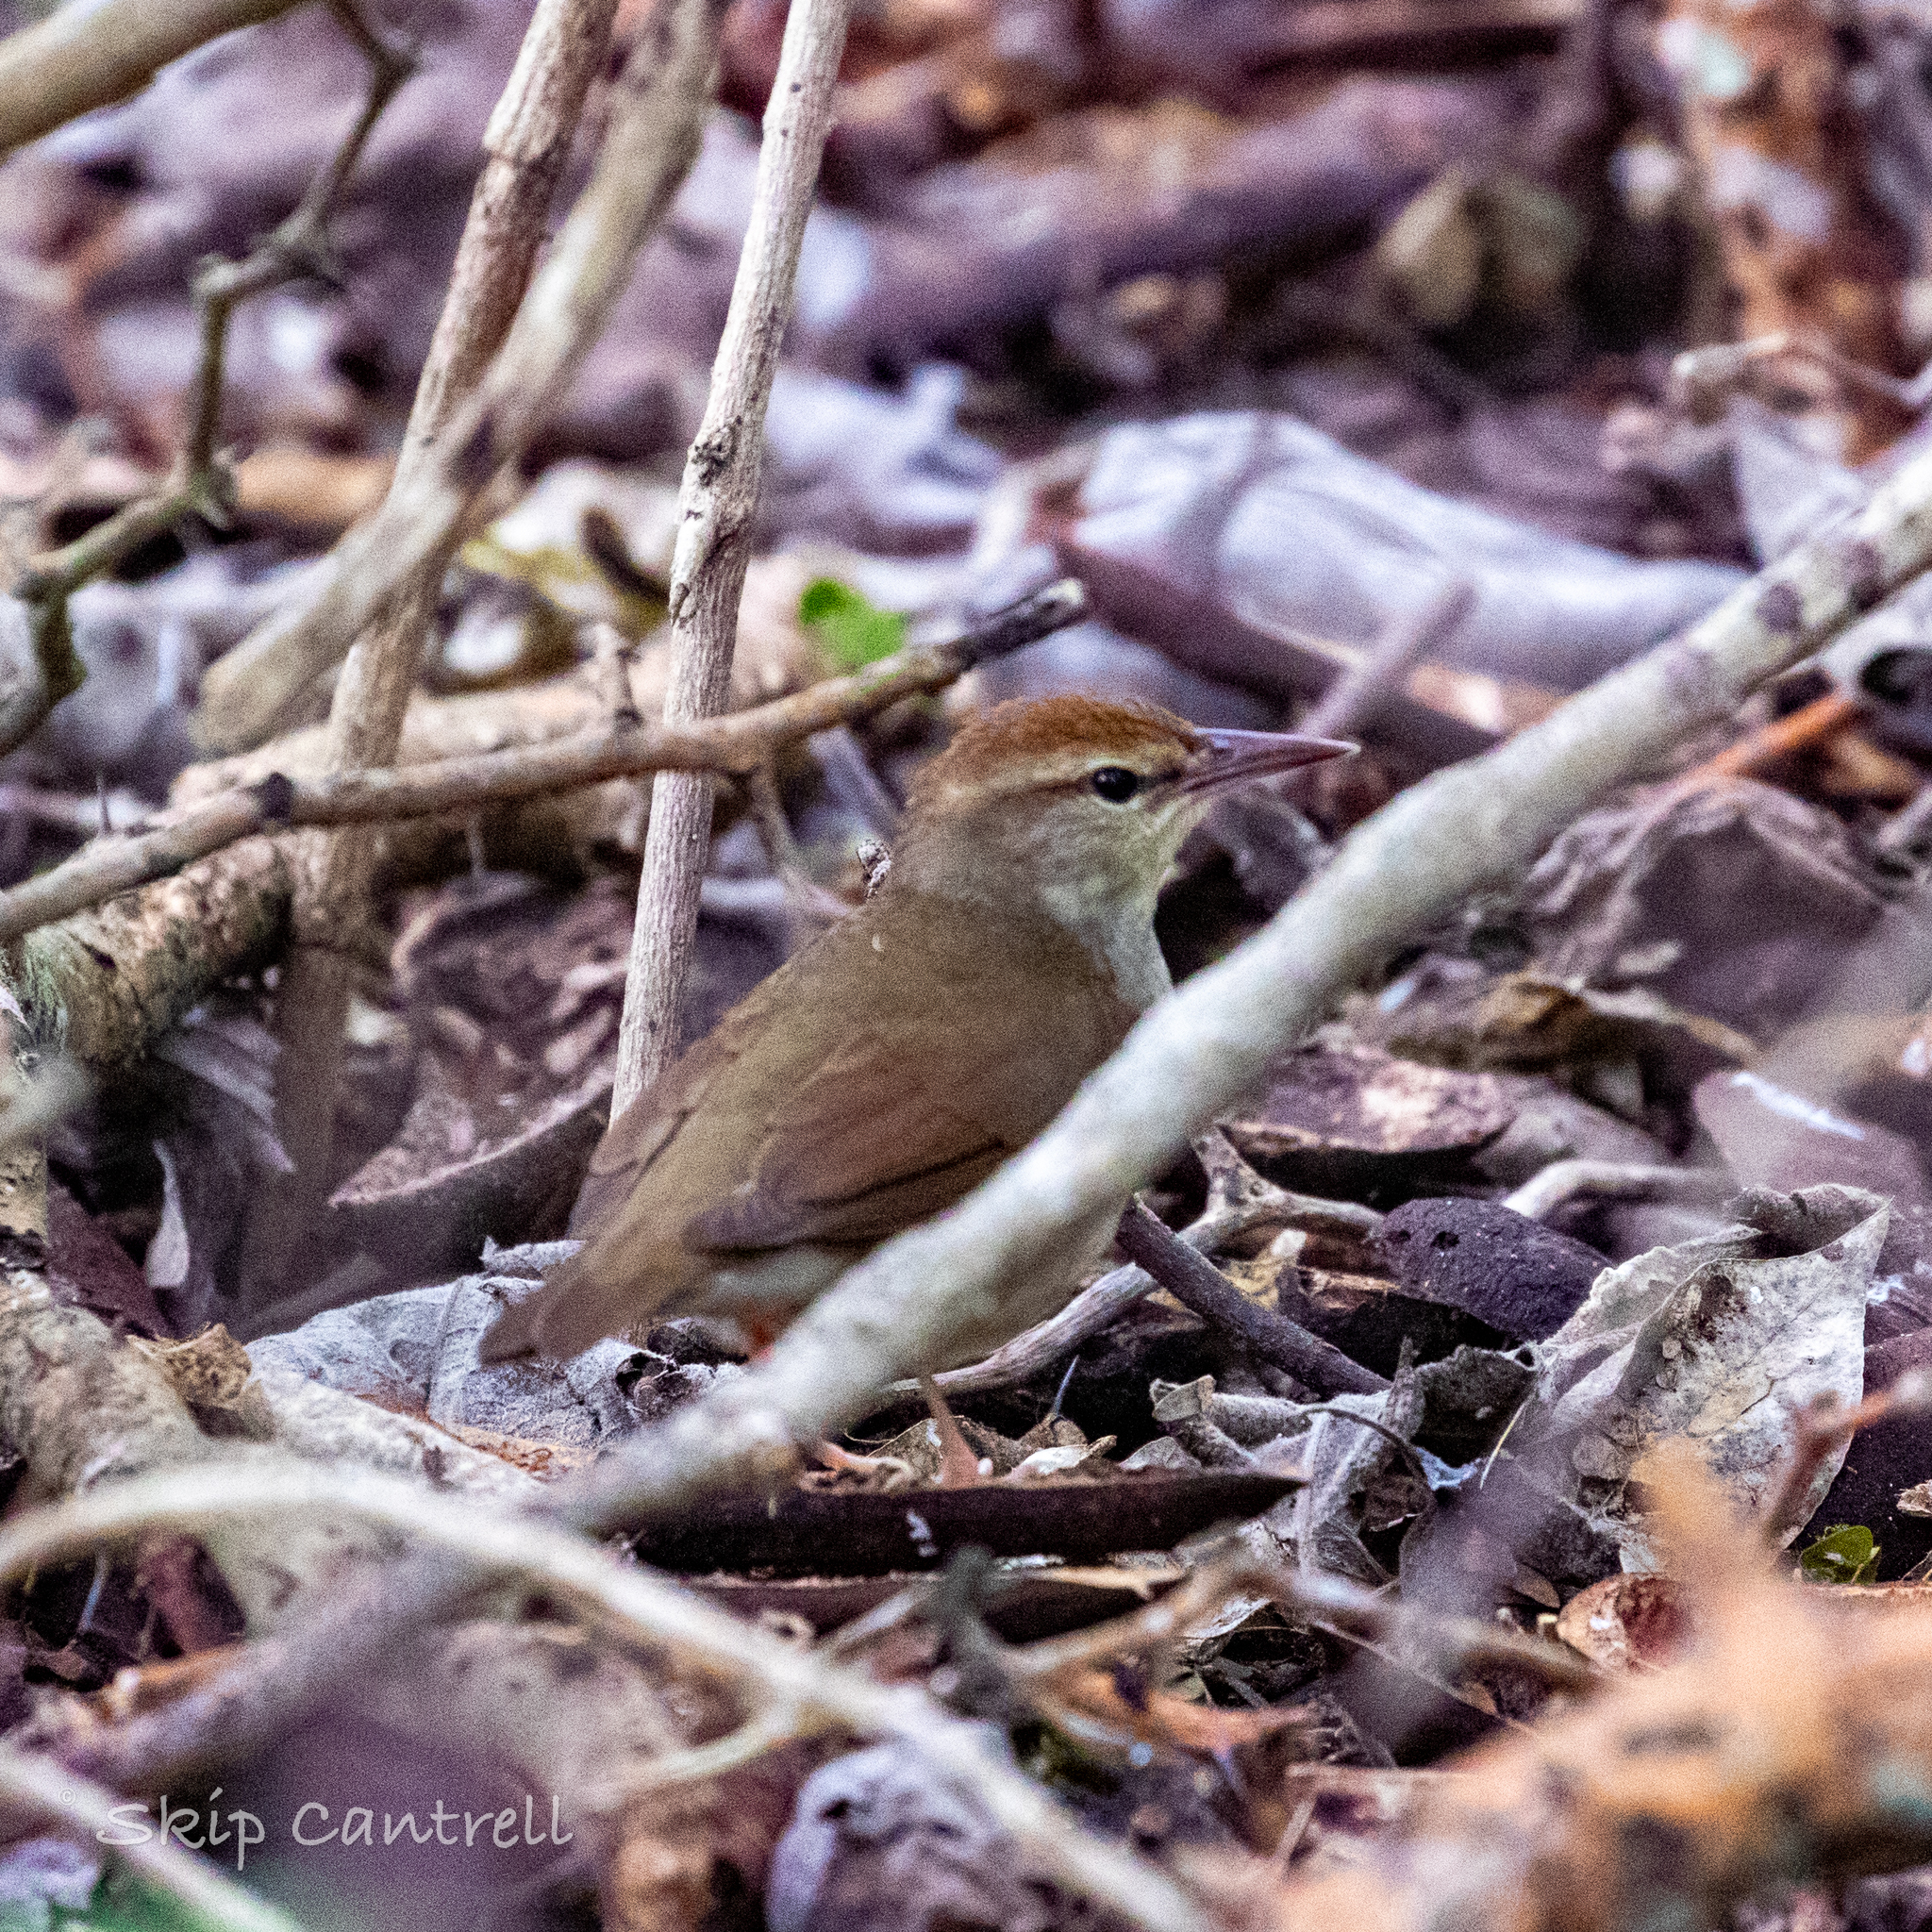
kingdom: Animalia
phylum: Chordata
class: Aves
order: Passeriformes
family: Parulidae
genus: Limnothlypis
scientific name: Limnothlypis swainsonii
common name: Swainson's warbler
